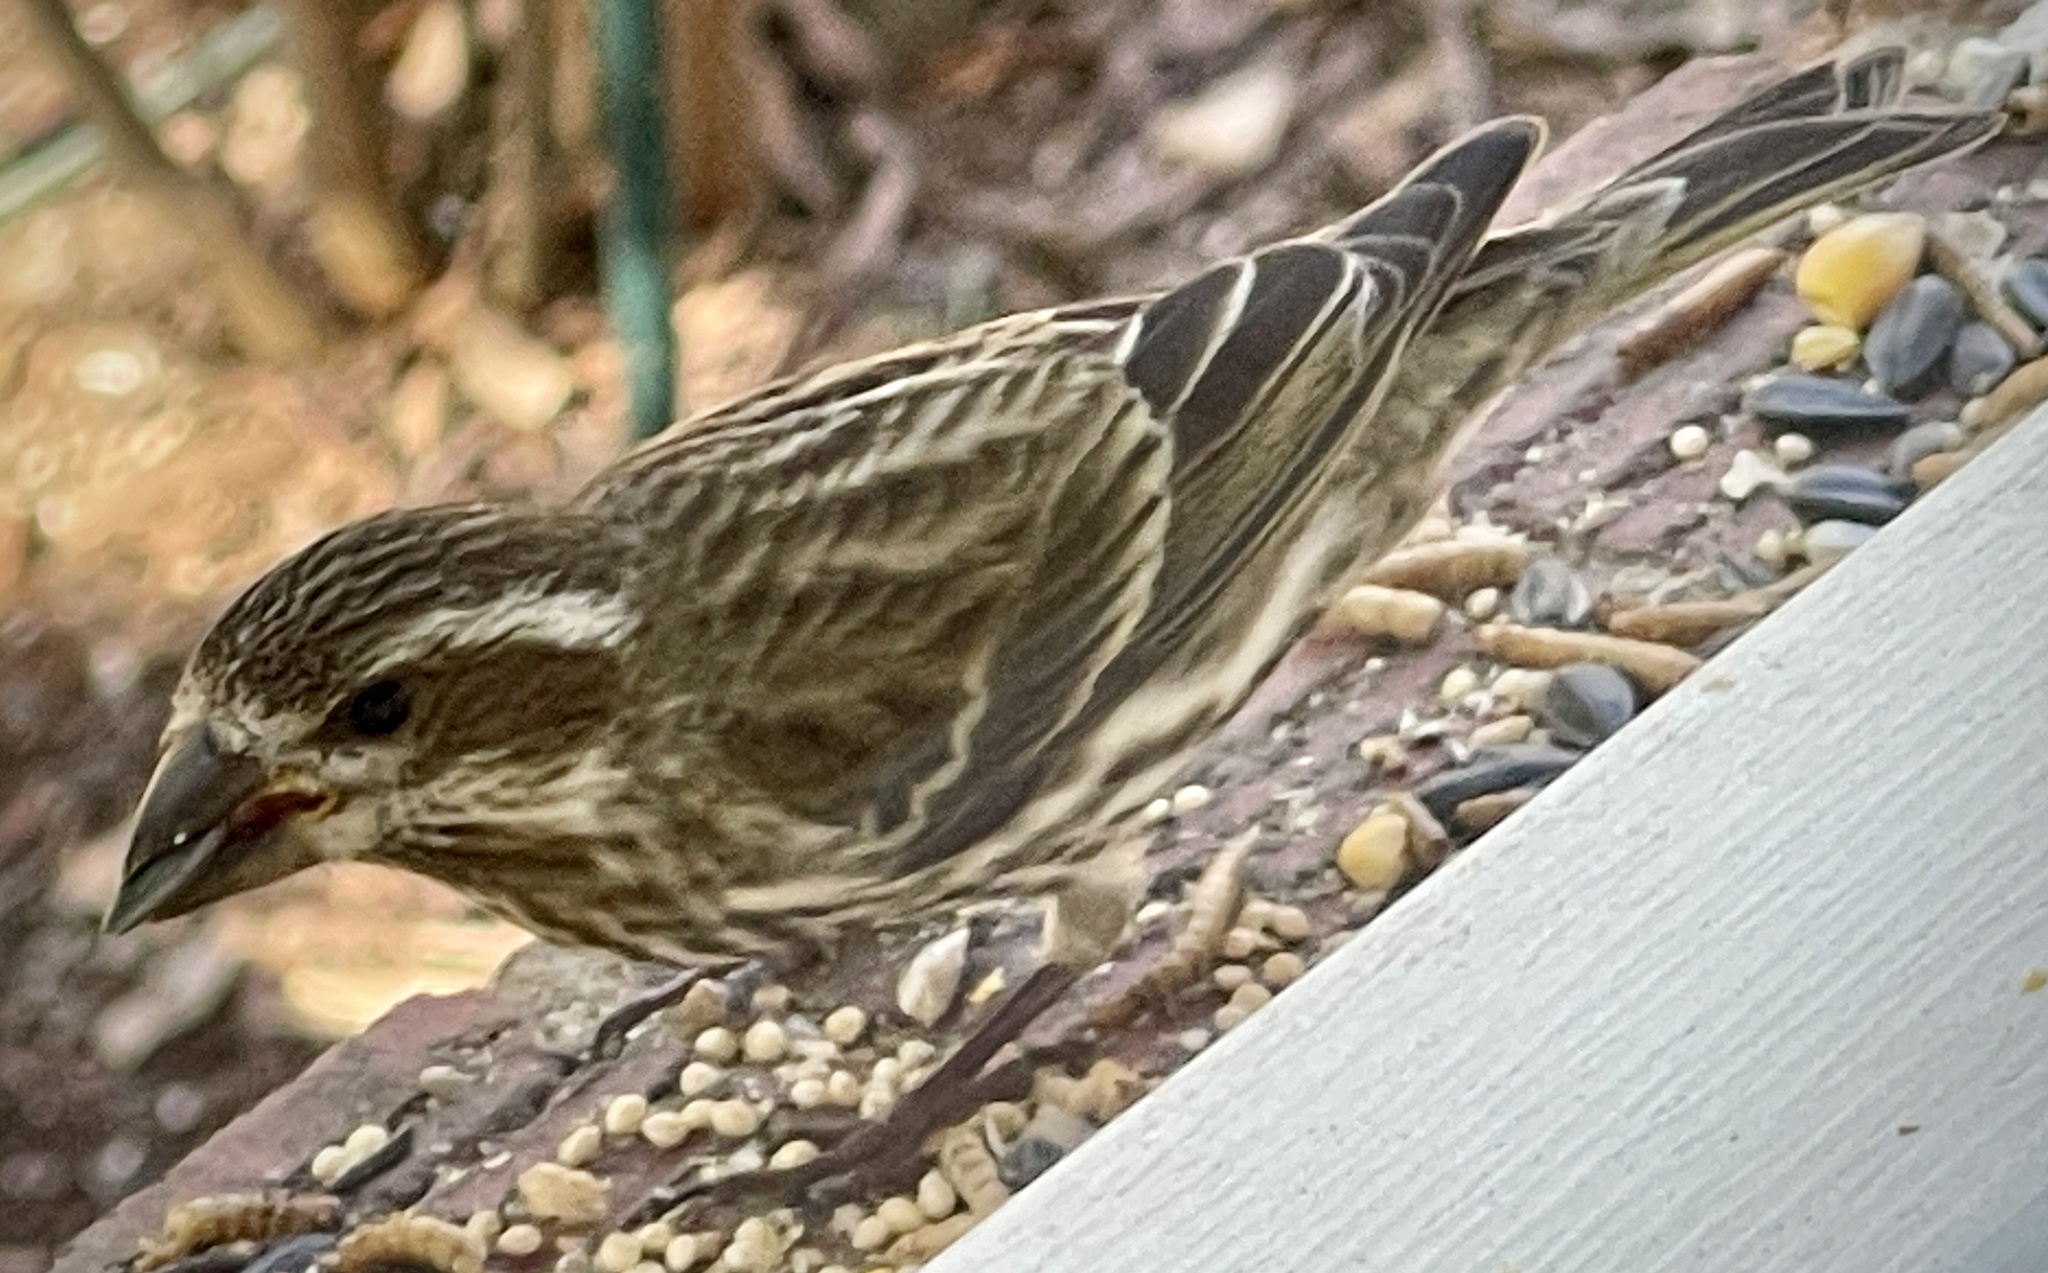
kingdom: Animalia
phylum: Chordata
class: Aves
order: Passeriformes
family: Fringillidae
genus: Haemorhous
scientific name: Haemorhous purpureus
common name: Purple finch
